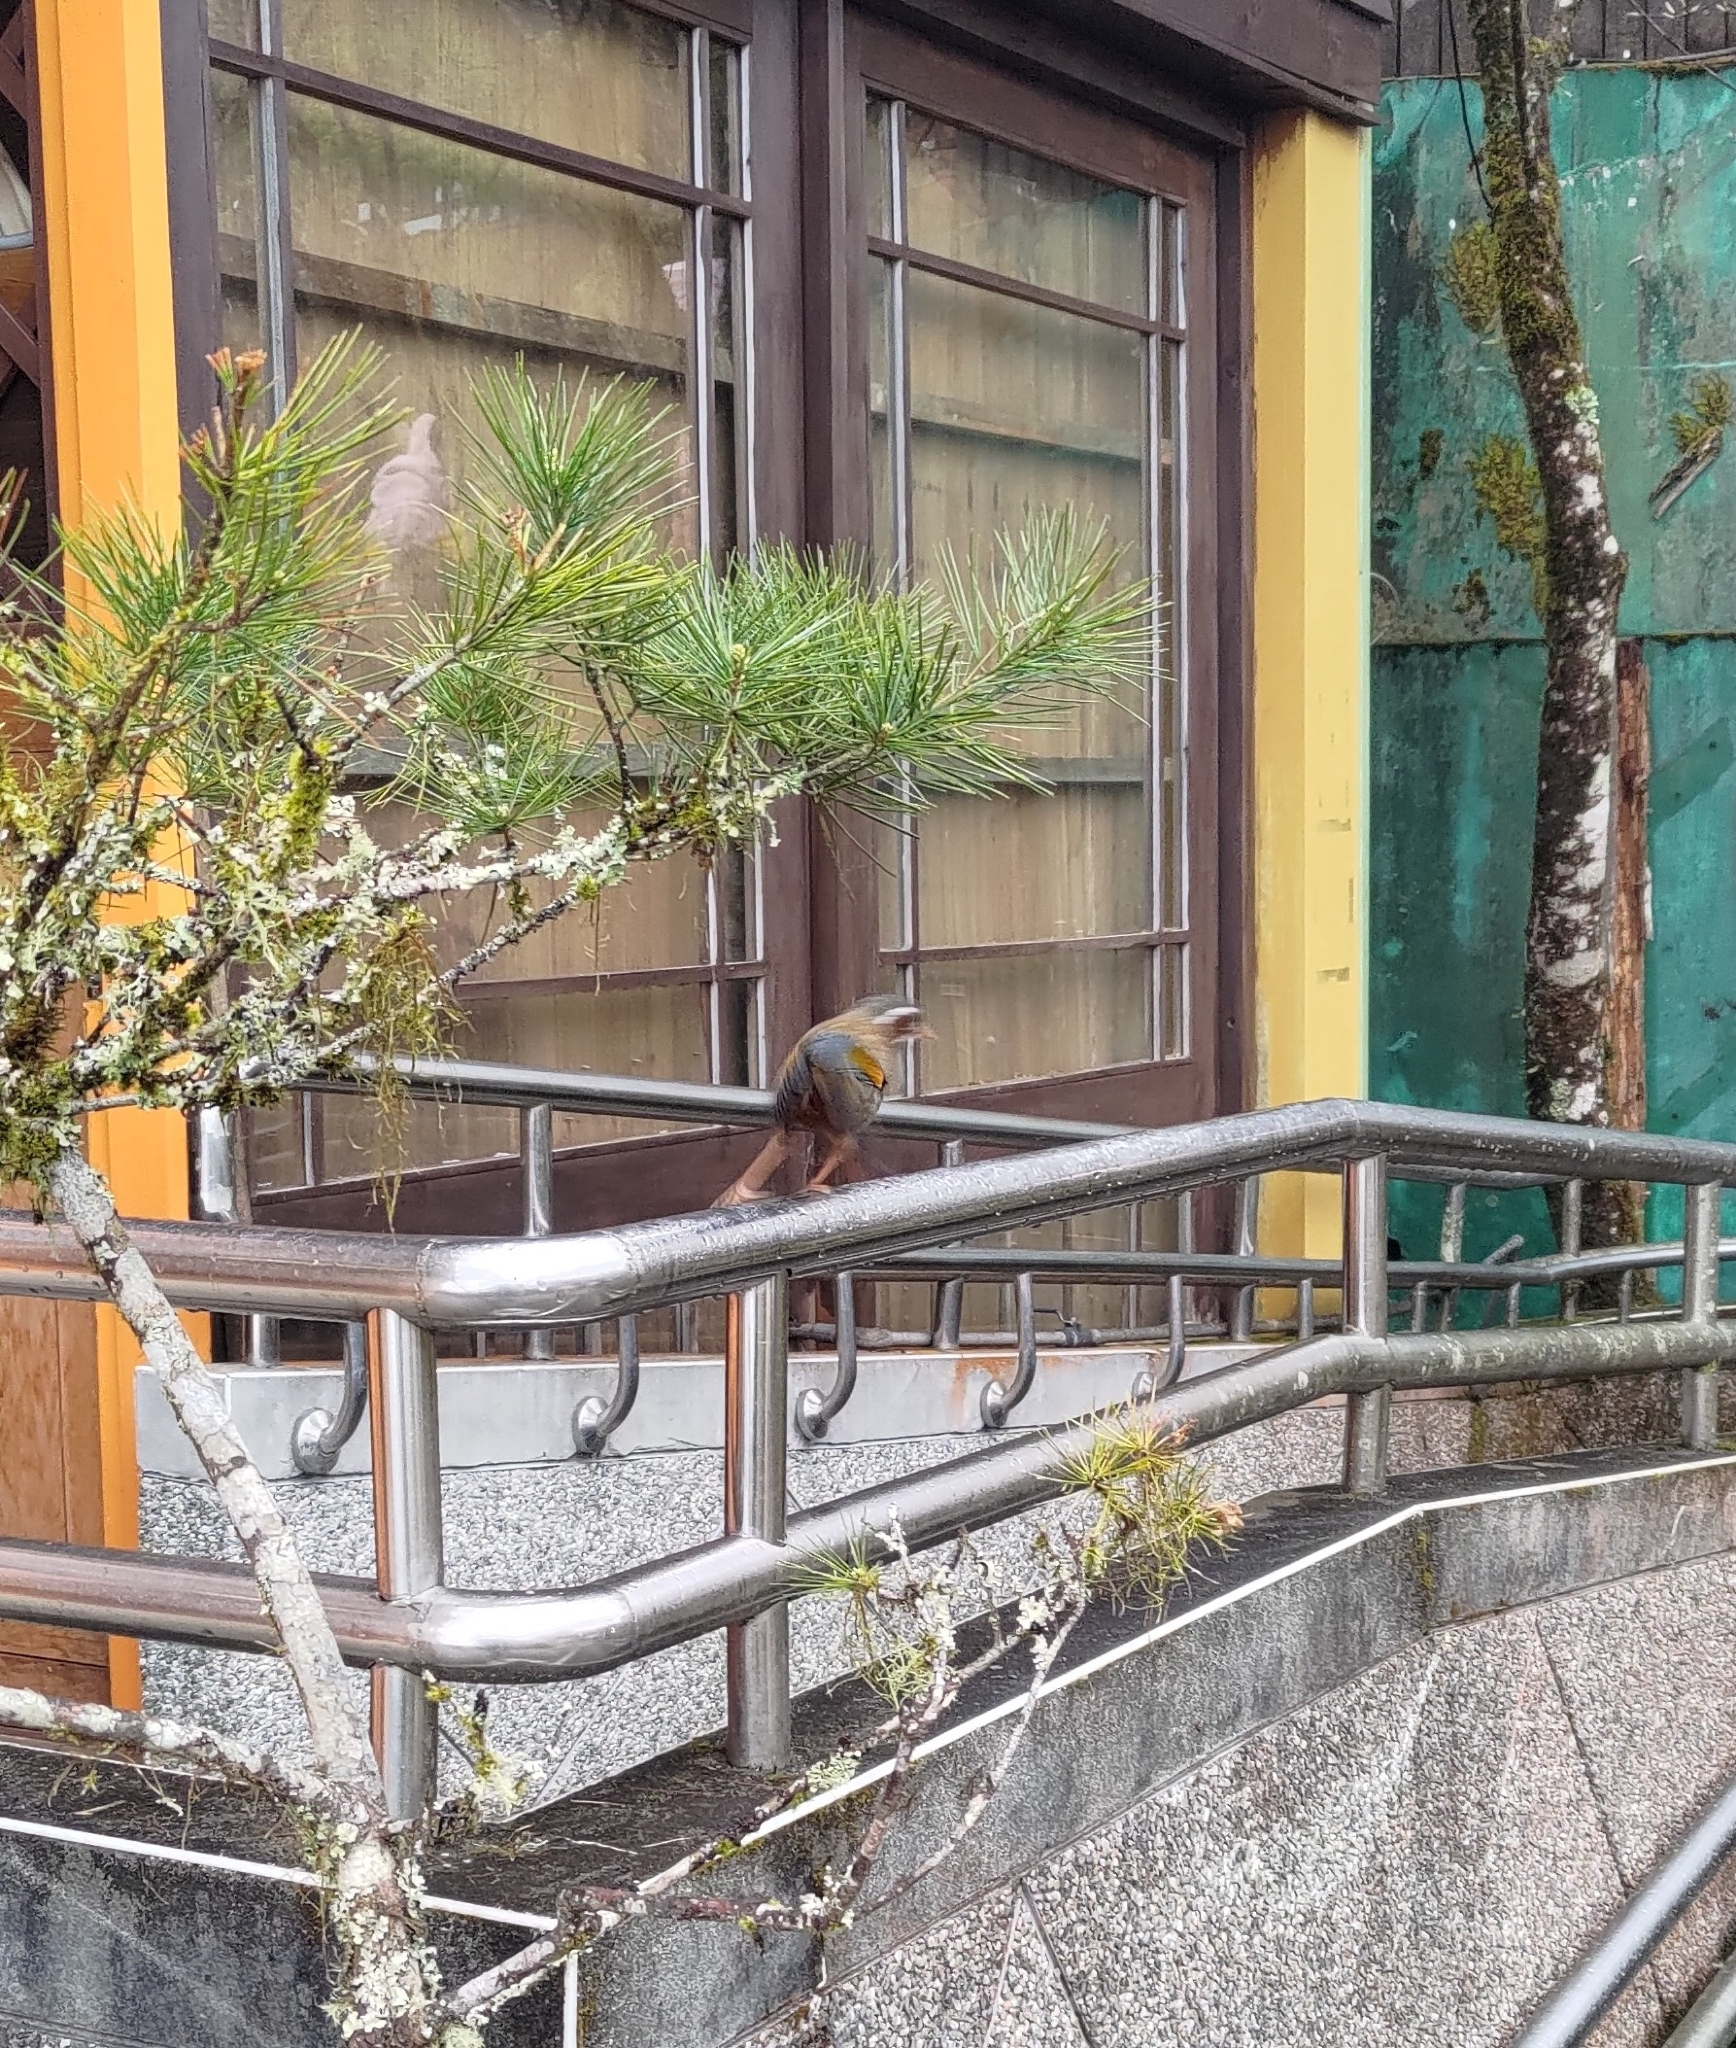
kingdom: Animalia
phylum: Chordata
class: Aves
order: Passeriformes
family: Leiothrichidae
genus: Trochalopteron
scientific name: Trochalopteron morrisonianum
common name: White-whiskered laughingthrush
